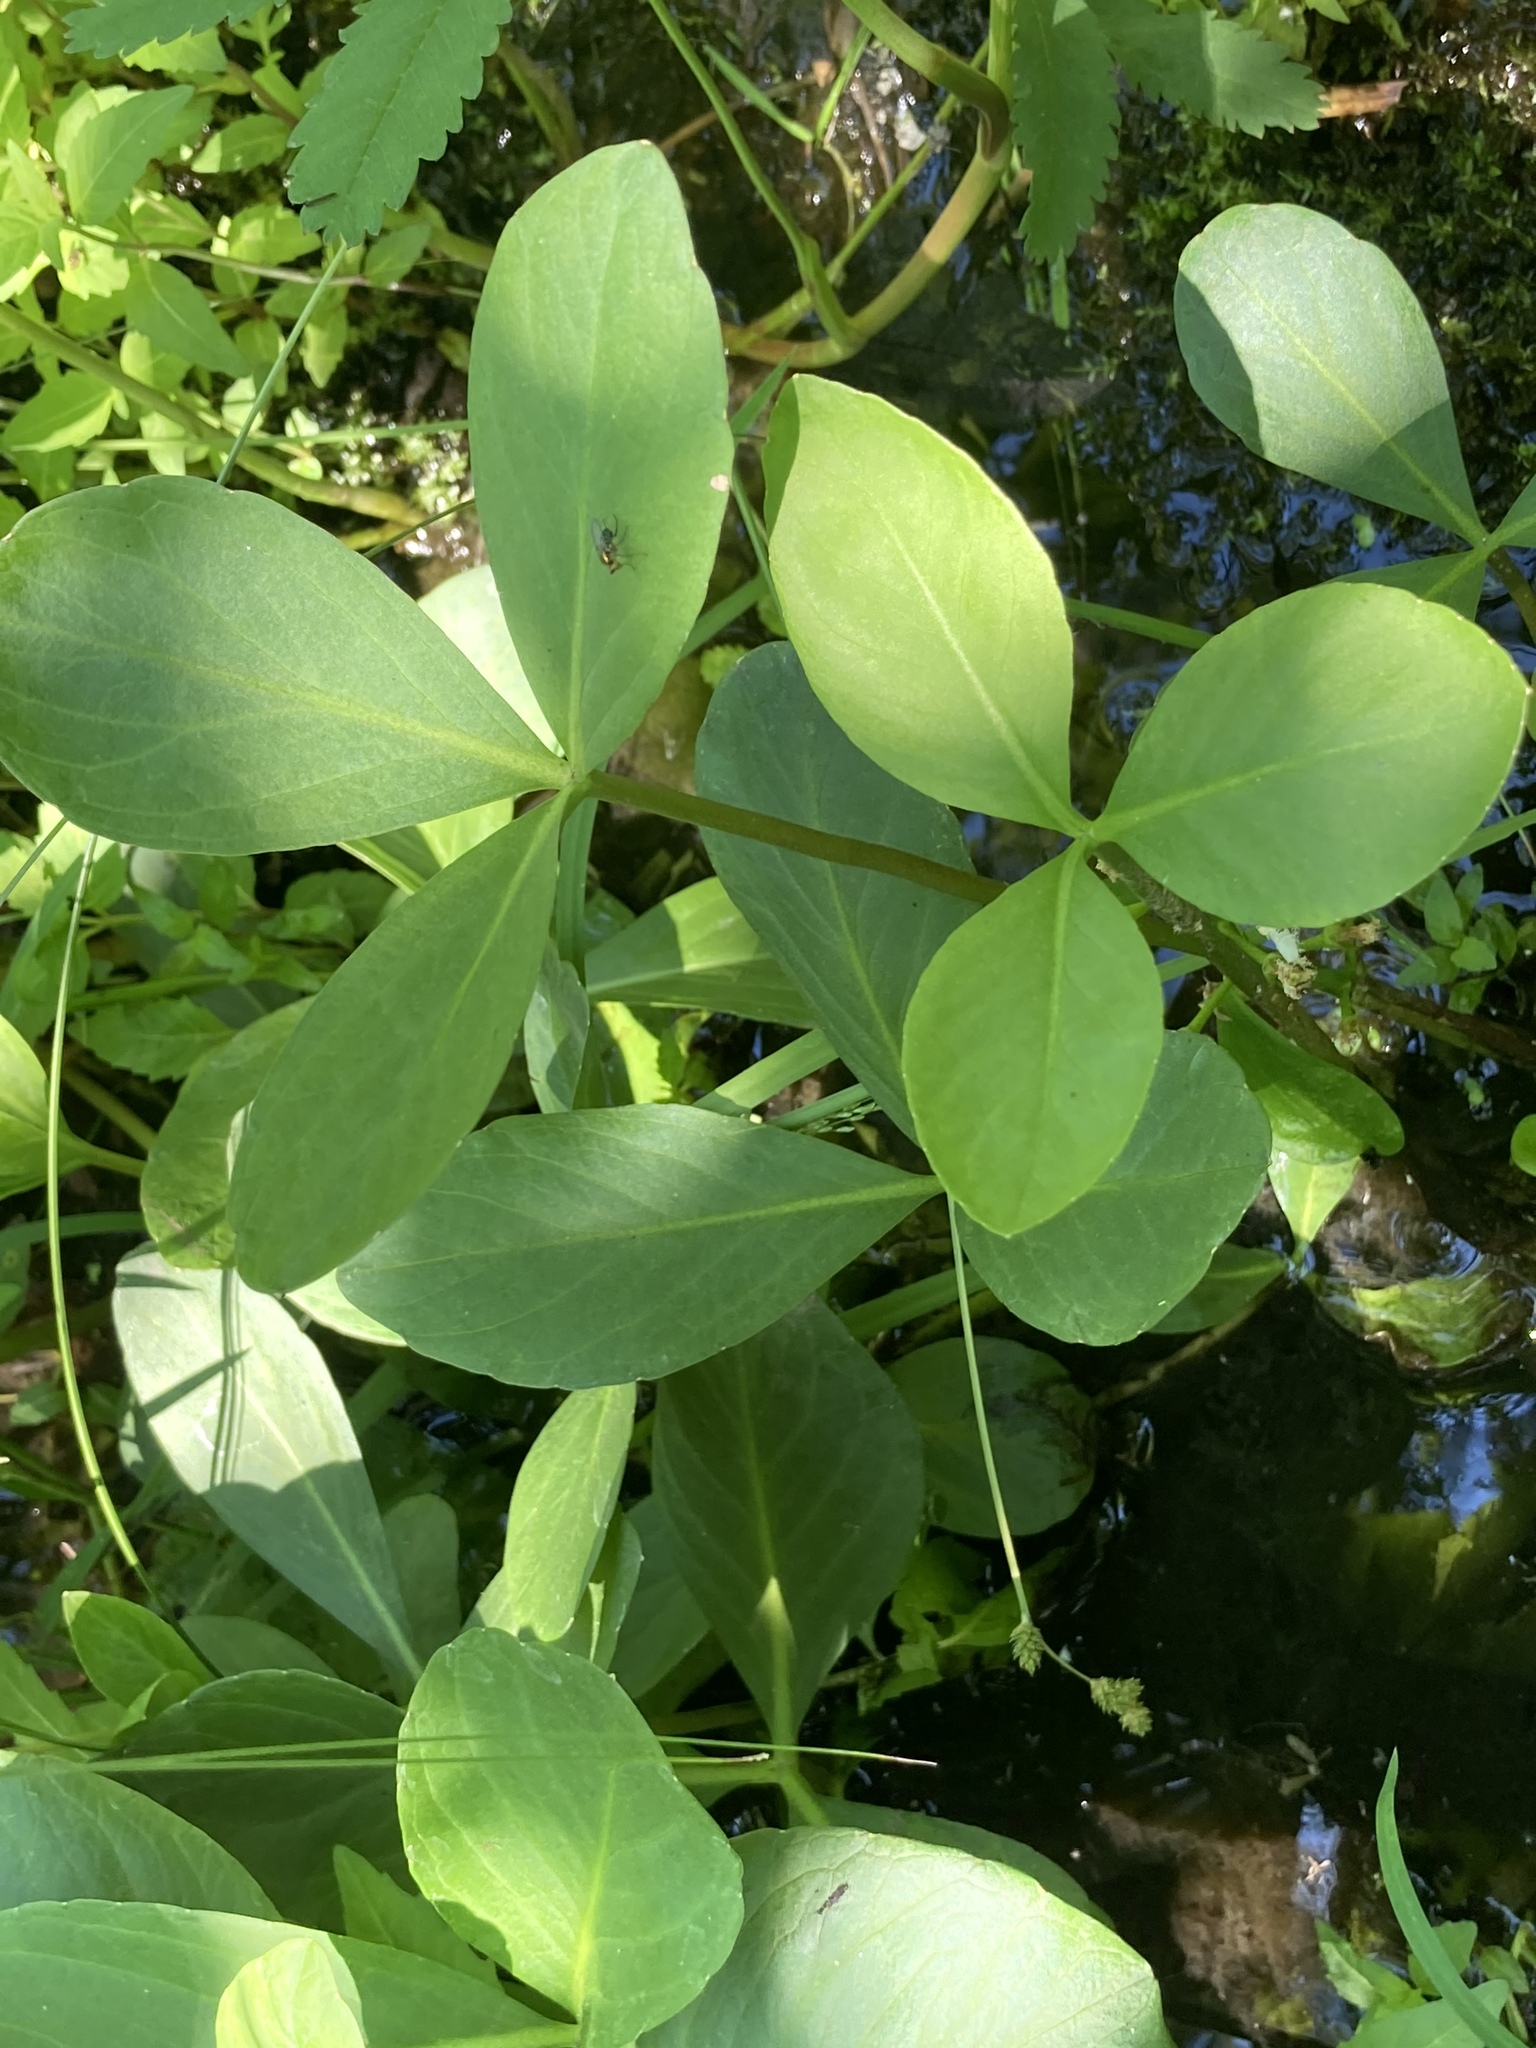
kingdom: Plantae
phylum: Tracheophyta
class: Magnoliopsida
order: Asterales
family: Menyanthaceae
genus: Menyanthes
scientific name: Menyanthes trifoliata
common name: Bogbean
